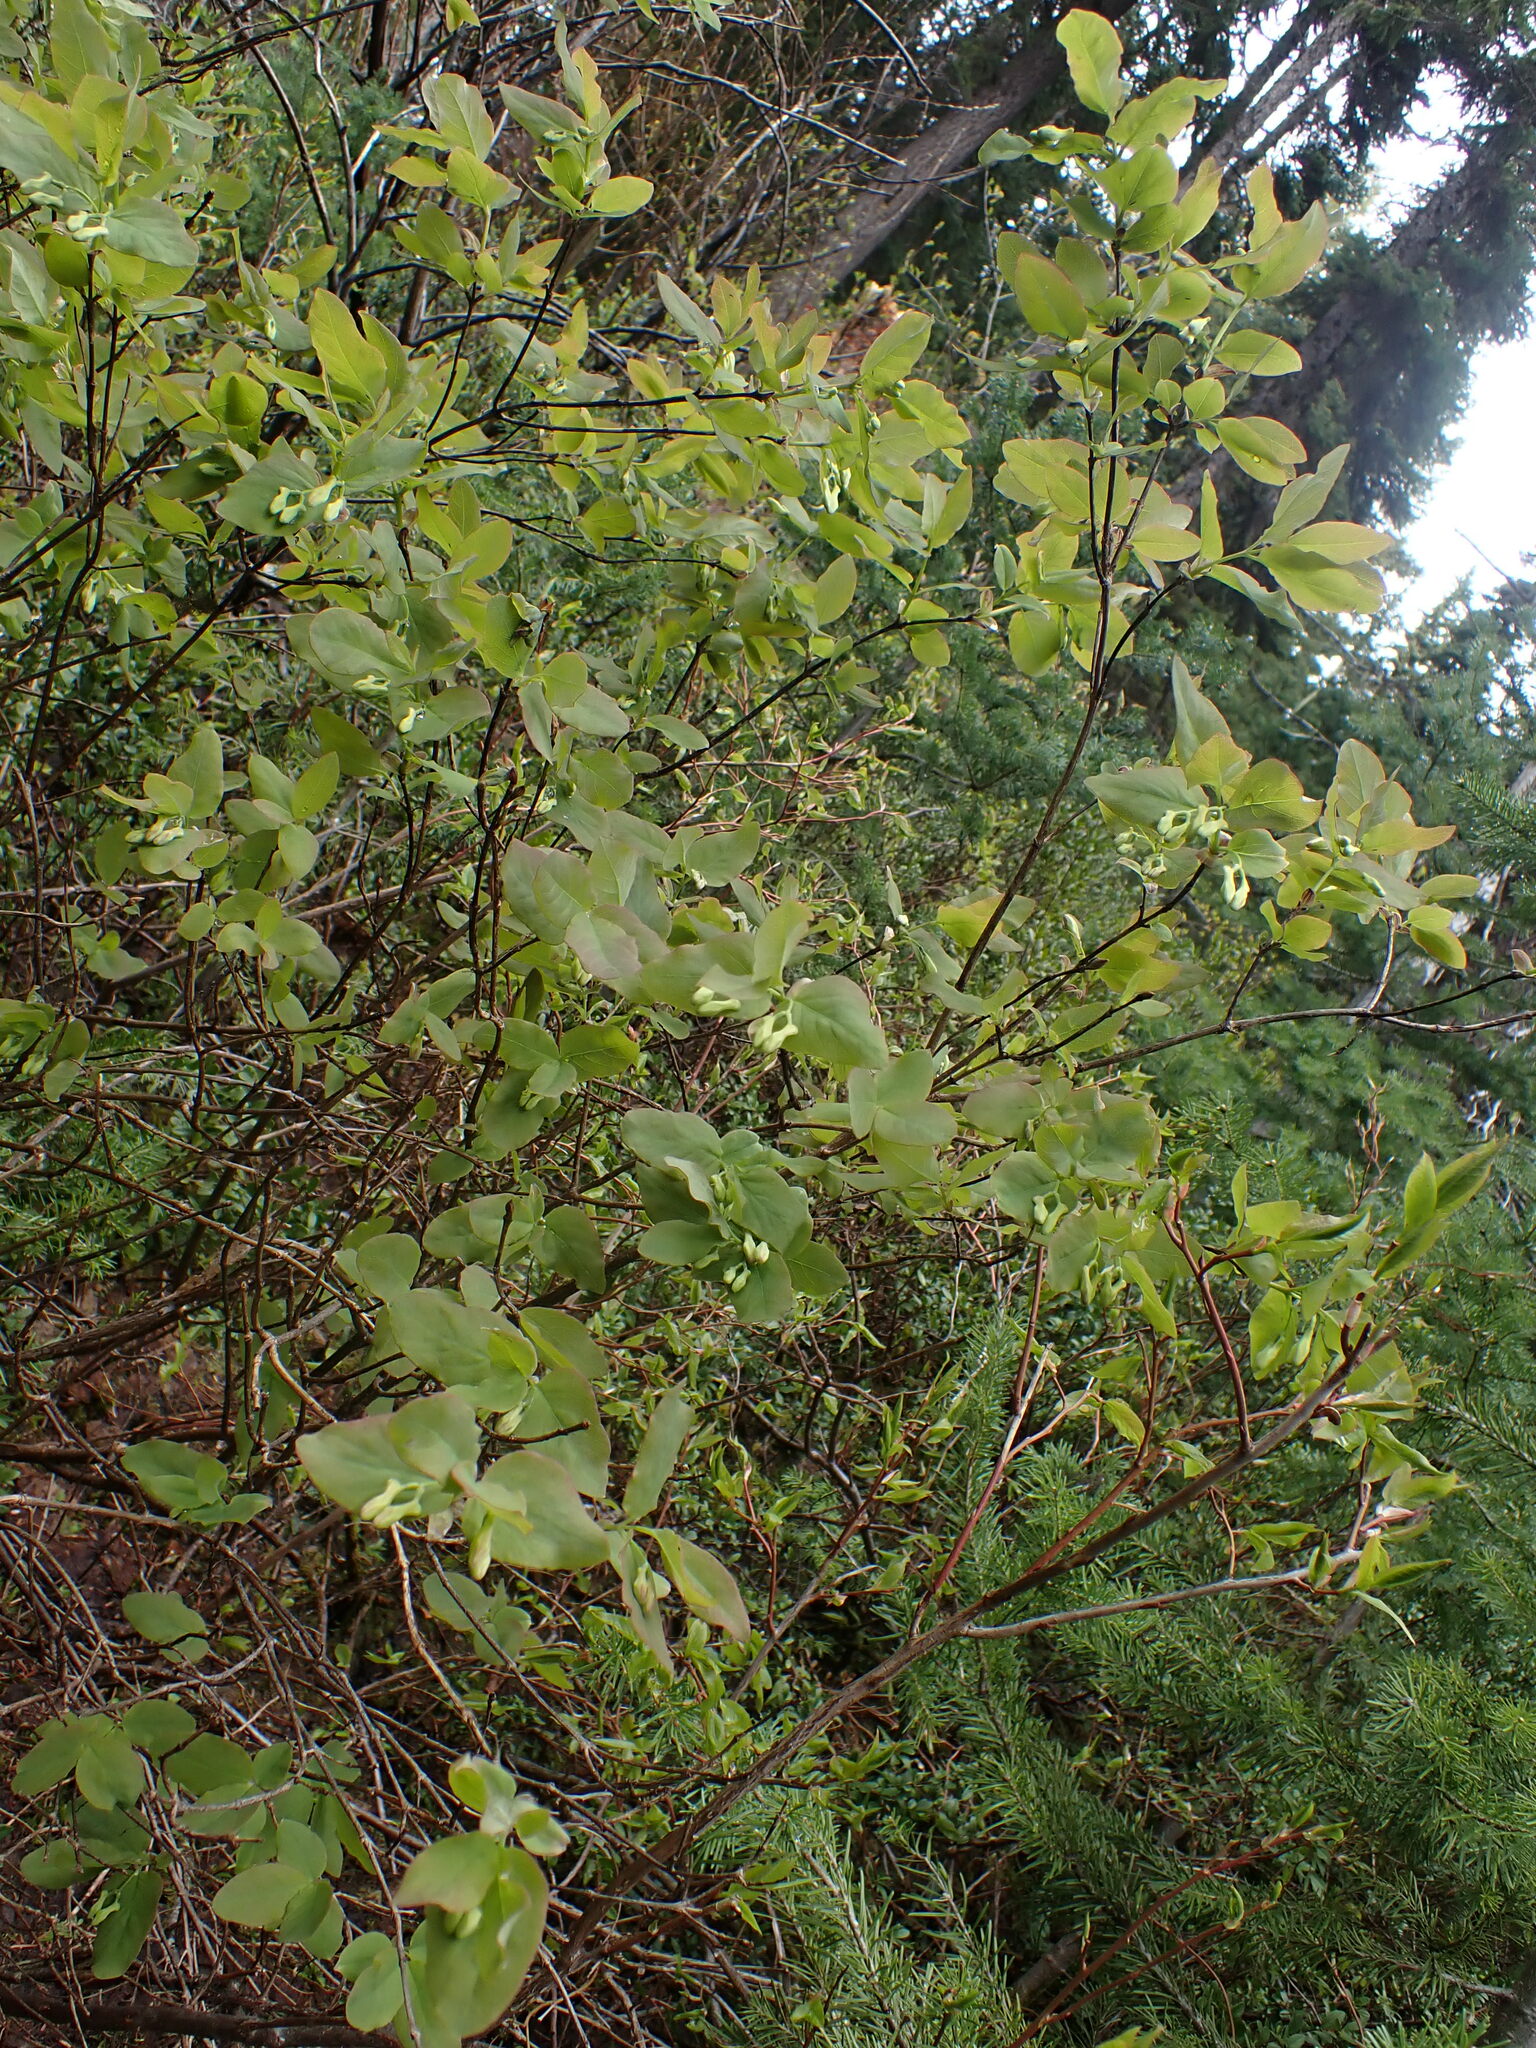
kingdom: Plantae
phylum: Tracheophyta
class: Magnoliopsida
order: Dipsacales
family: Caprifoliaceae
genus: Lonicera
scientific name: Lonicera utahensis
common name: Utah honeysuckle
